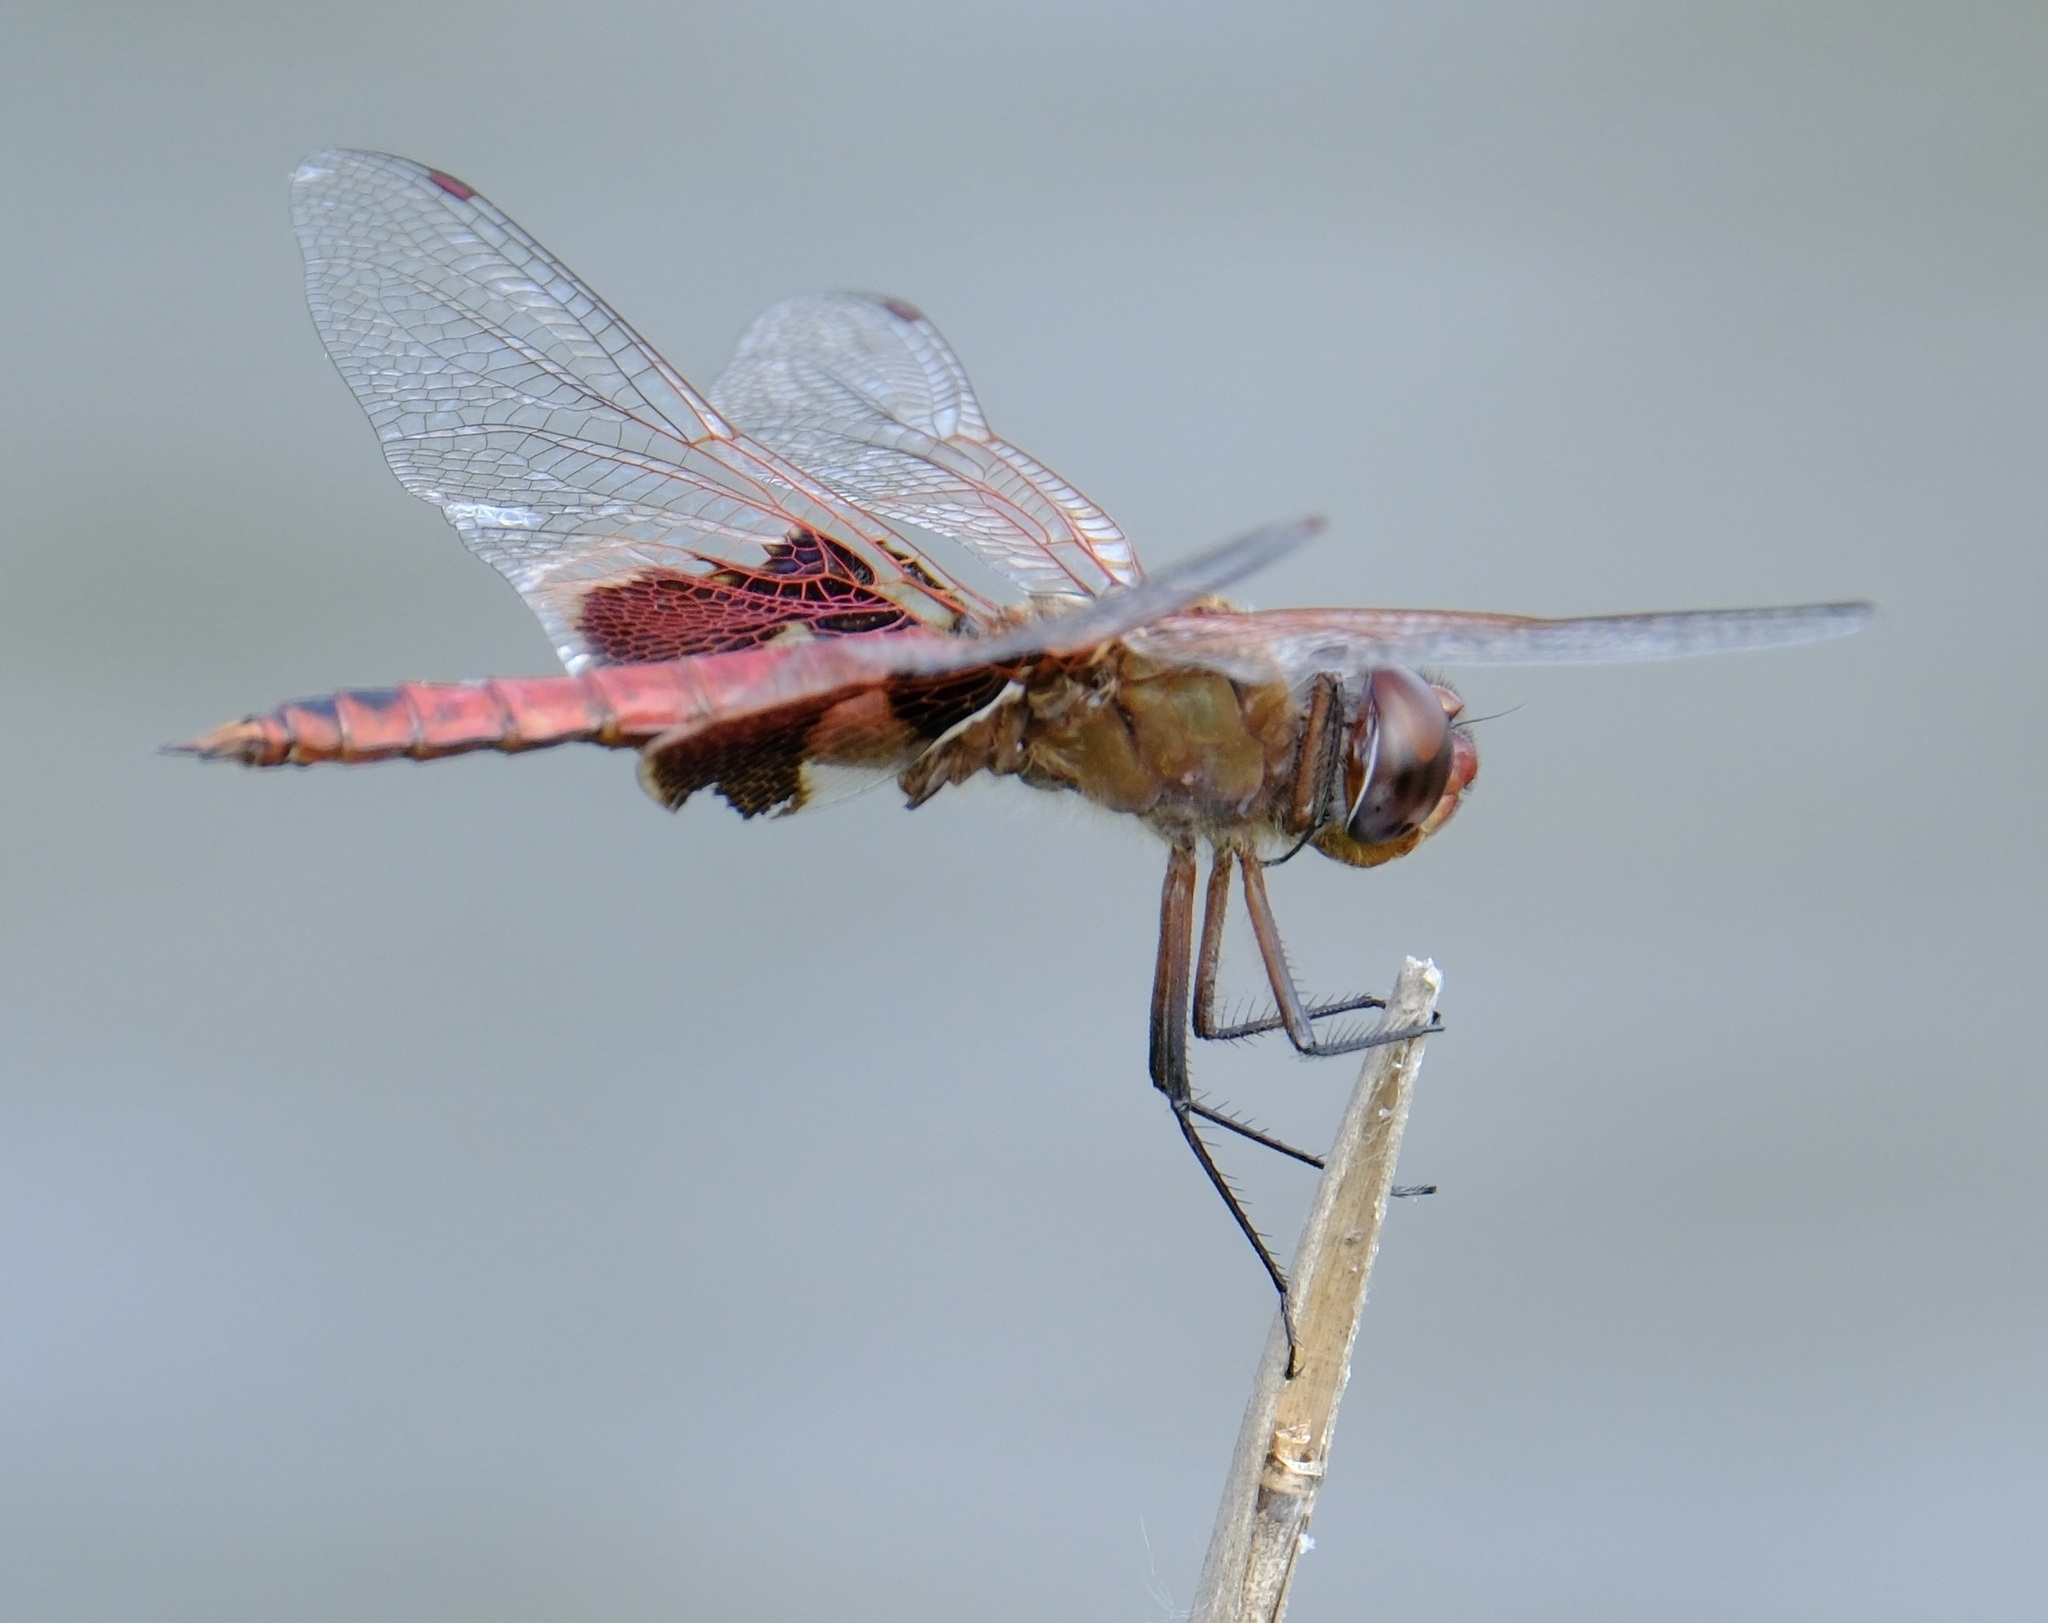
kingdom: Animalia
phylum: Arthropoda
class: Insecta
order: Odonata
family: Libellulidae
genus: Tramea
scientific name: Tramea onusta
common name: Red saddlebags
